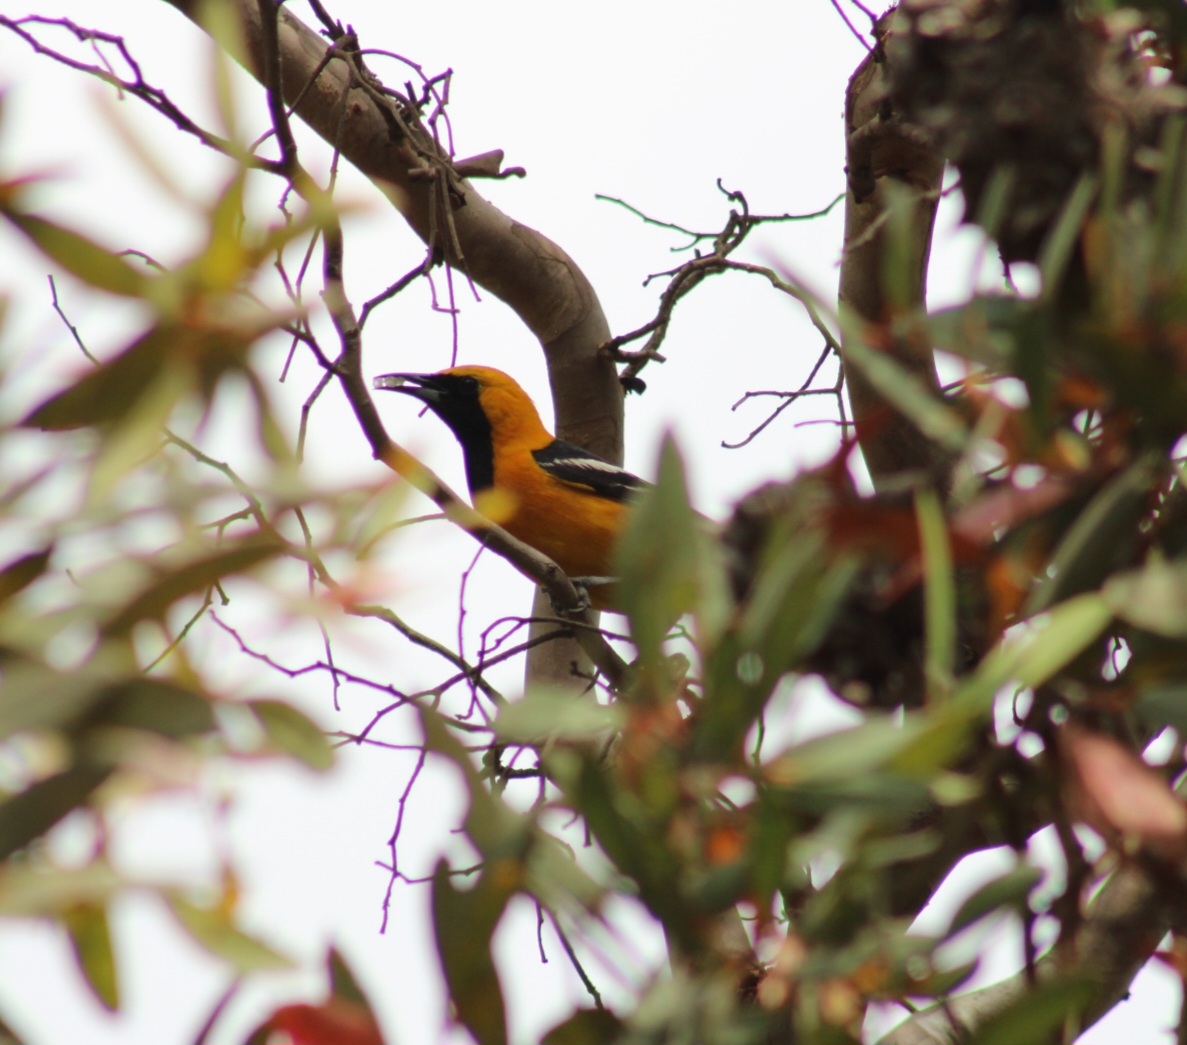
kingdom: Animalia
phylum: Chordata
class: Aves
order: Passeriformes
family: Icteridae
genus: Icterus
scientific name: Icterus cucullatus
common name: Hooded oriole
